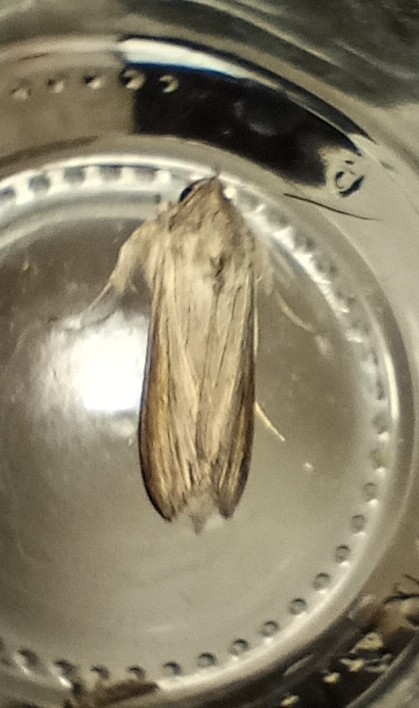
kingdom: Animalia
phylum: Arthropoda
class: Insecta
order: Lepidoptera
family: Noctuidae
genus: Cucullia
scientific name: Cucullia umbratica
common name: Shark
